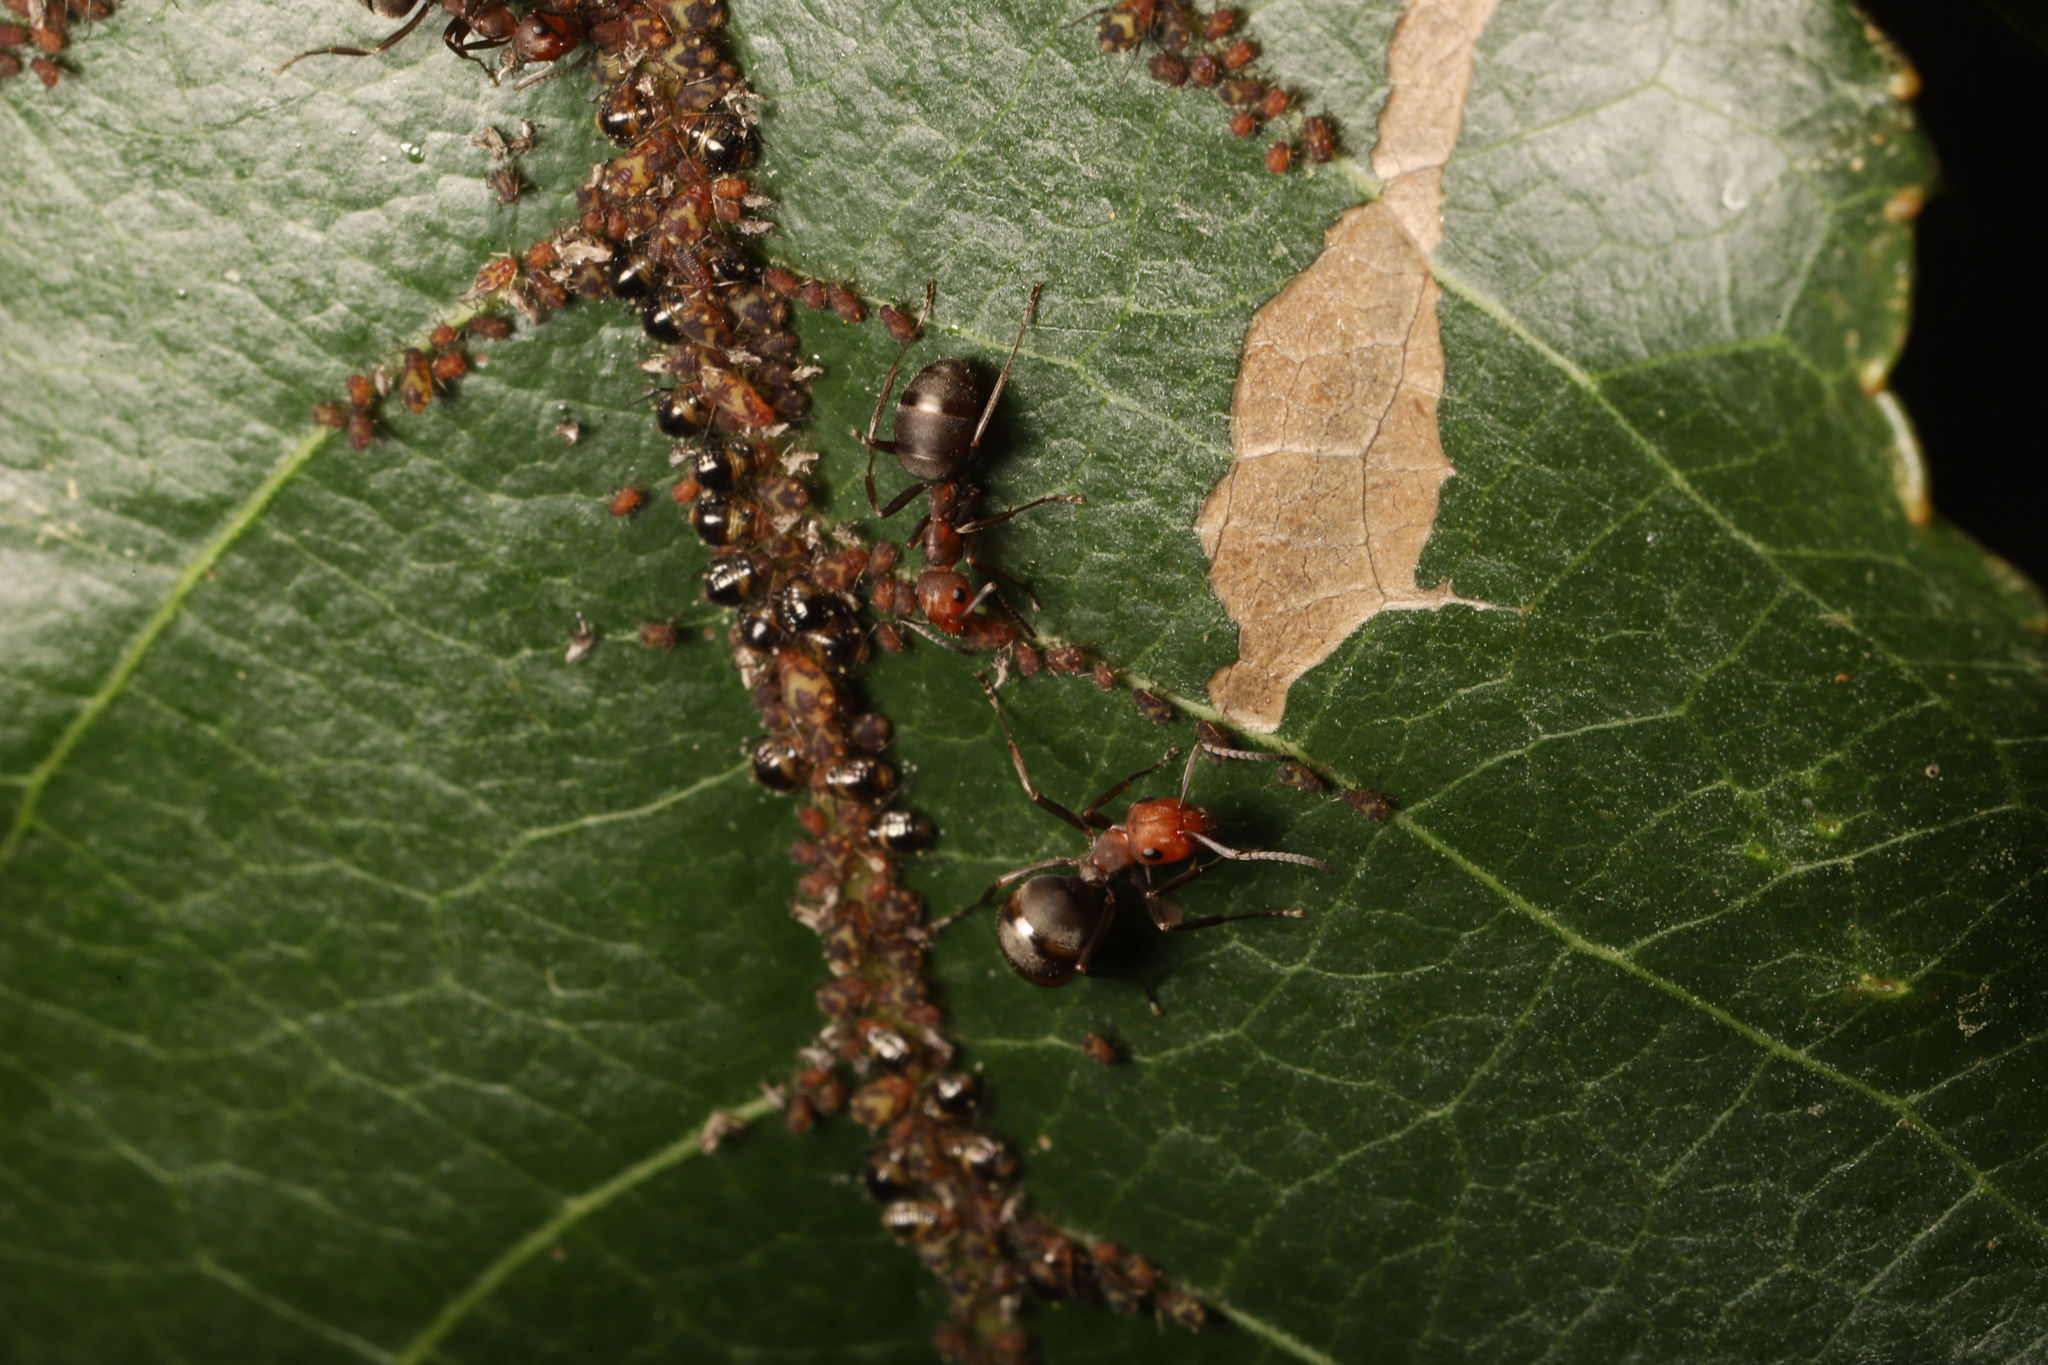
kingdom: Animalia
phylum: Arthropoda
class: Insecta
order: Hymenoptera
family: Formicidae
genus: Formica
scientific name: Formica obscuripes
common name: Western thatching ant
